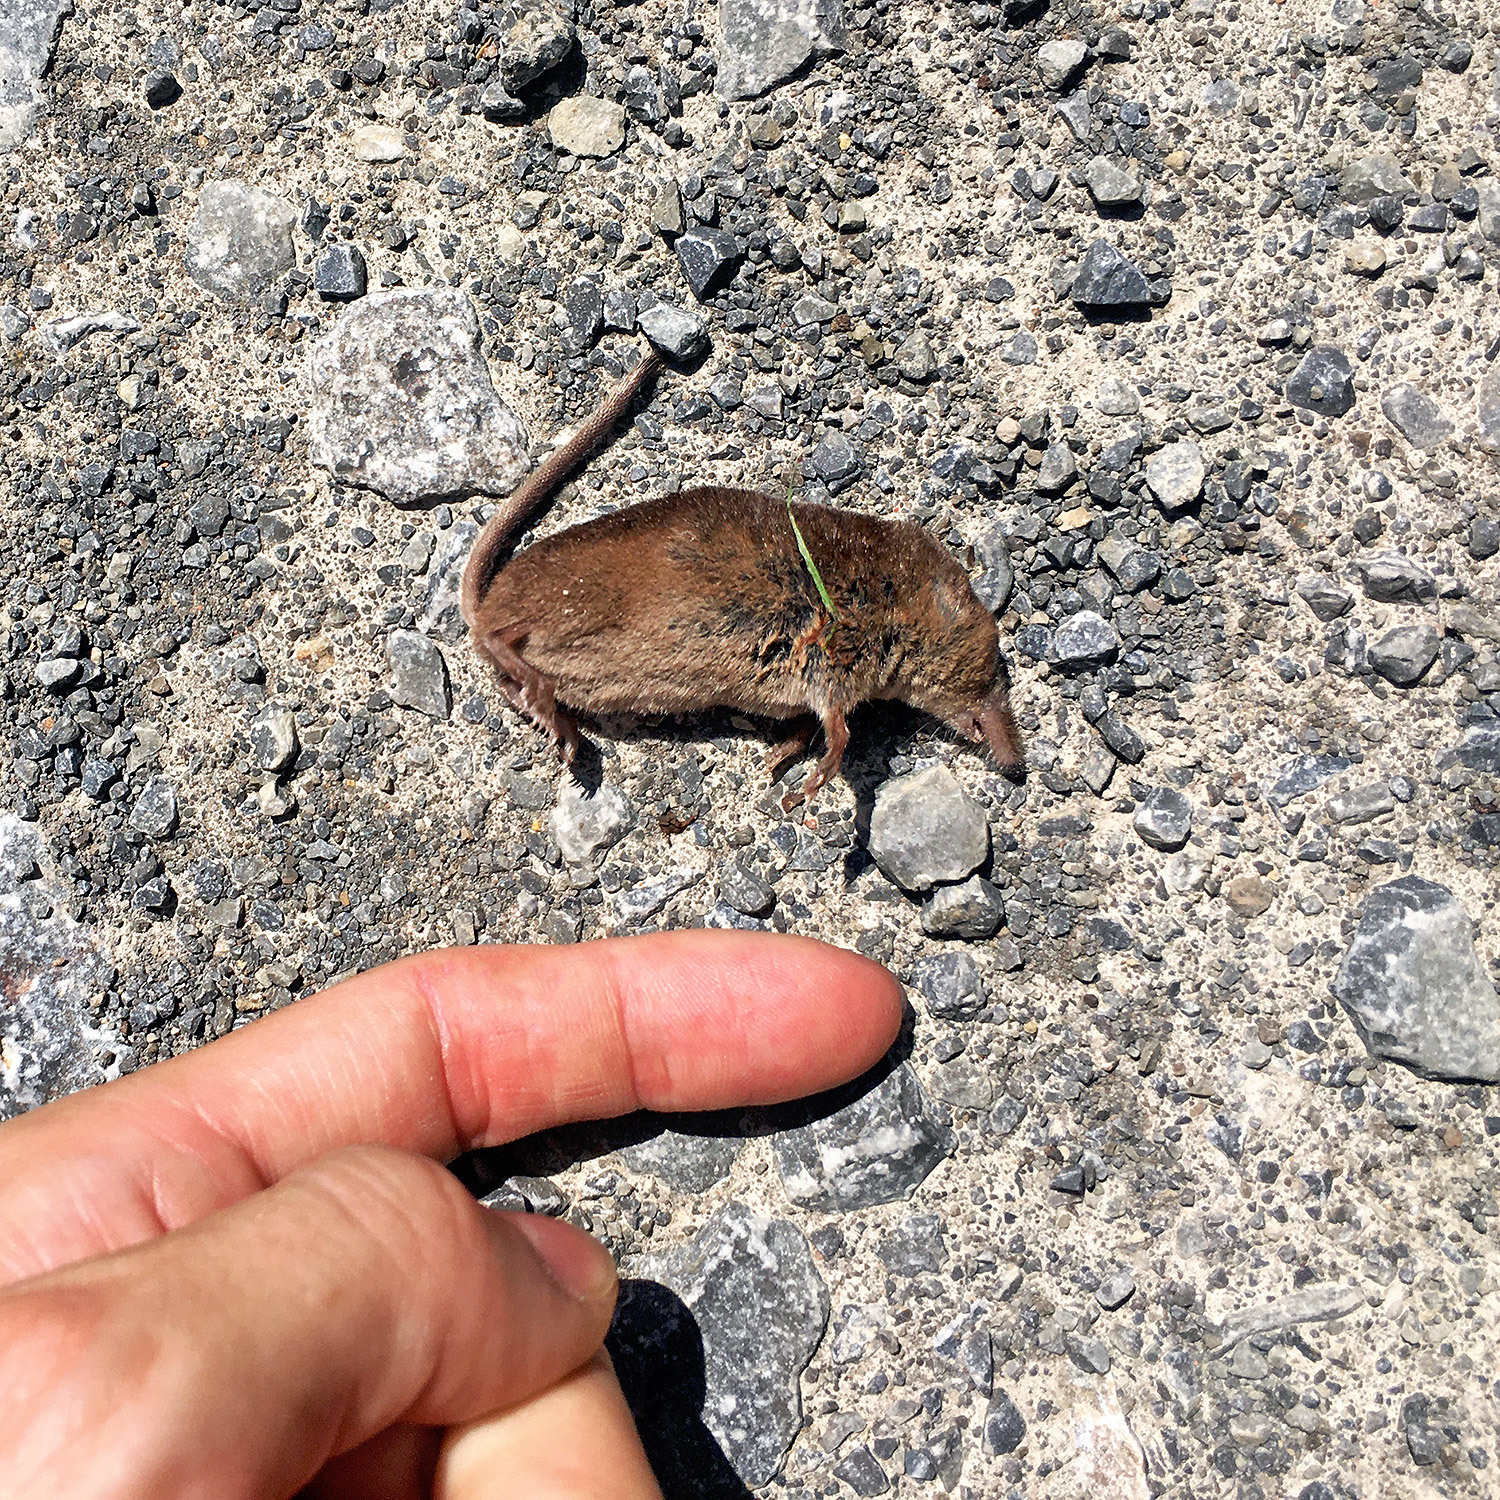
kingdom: Animalia
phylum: Chordata
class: Mammalia
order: Soricomorpha
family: Soricidae
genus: Sorex
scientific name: Sorex araneus
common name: Common shrew
